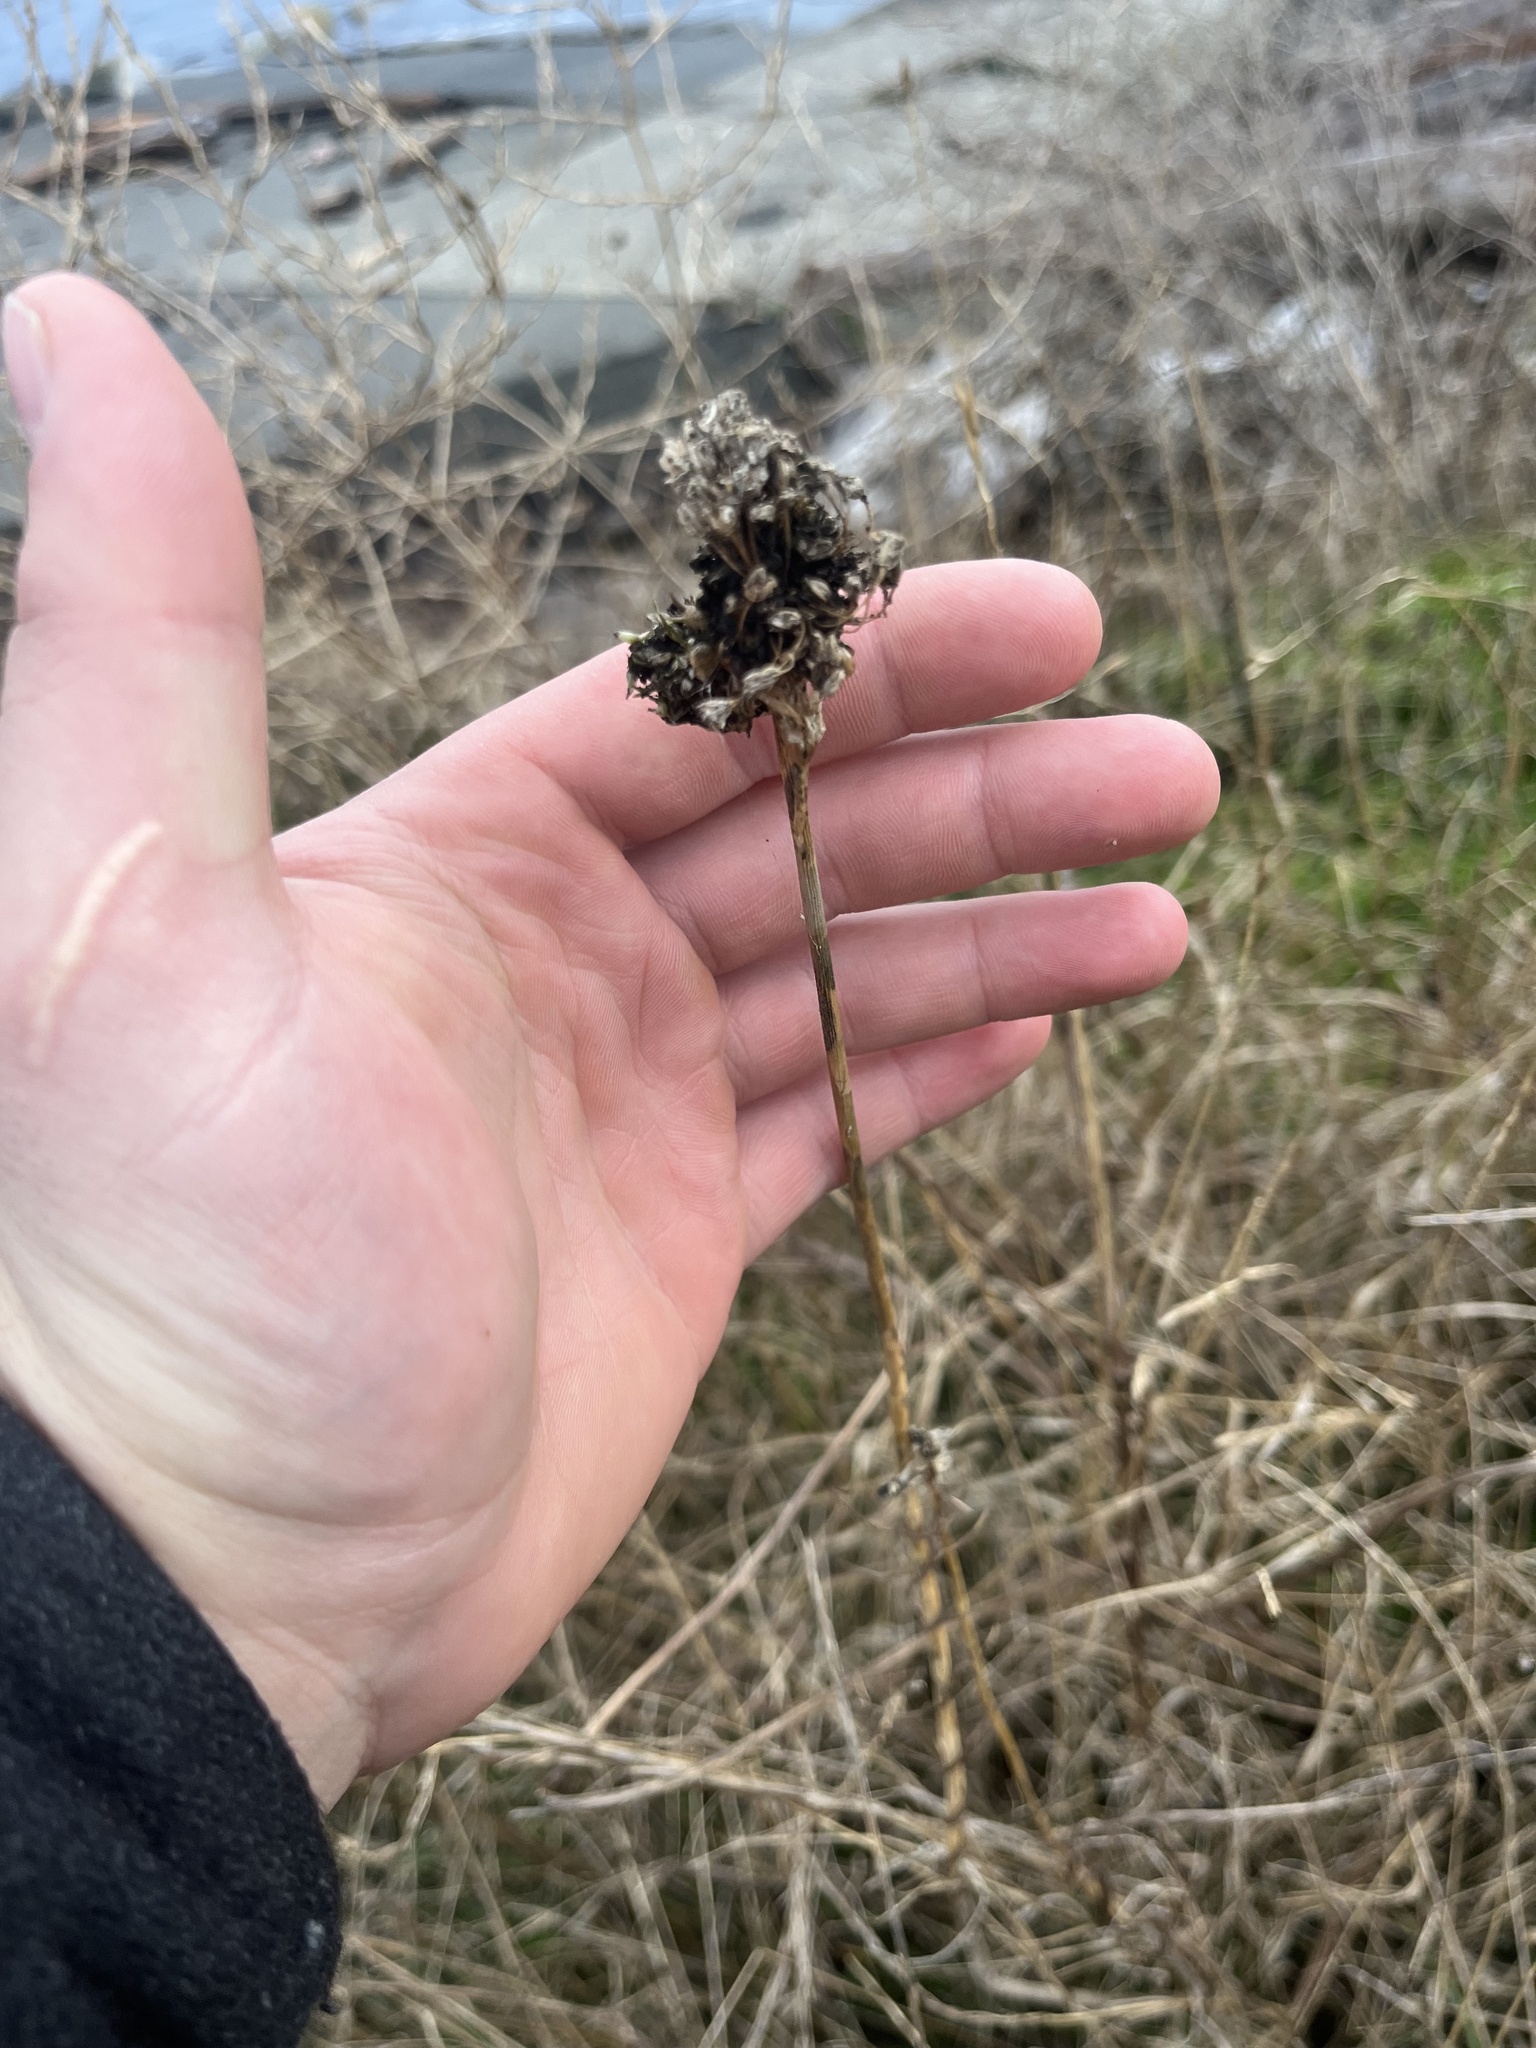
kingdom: Plantae
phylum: Tracheophyta
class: Liliopsida
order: Asparagales
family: Amaryllidaceae
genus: Allium
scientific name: Allium vineale
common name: Crow garlic
